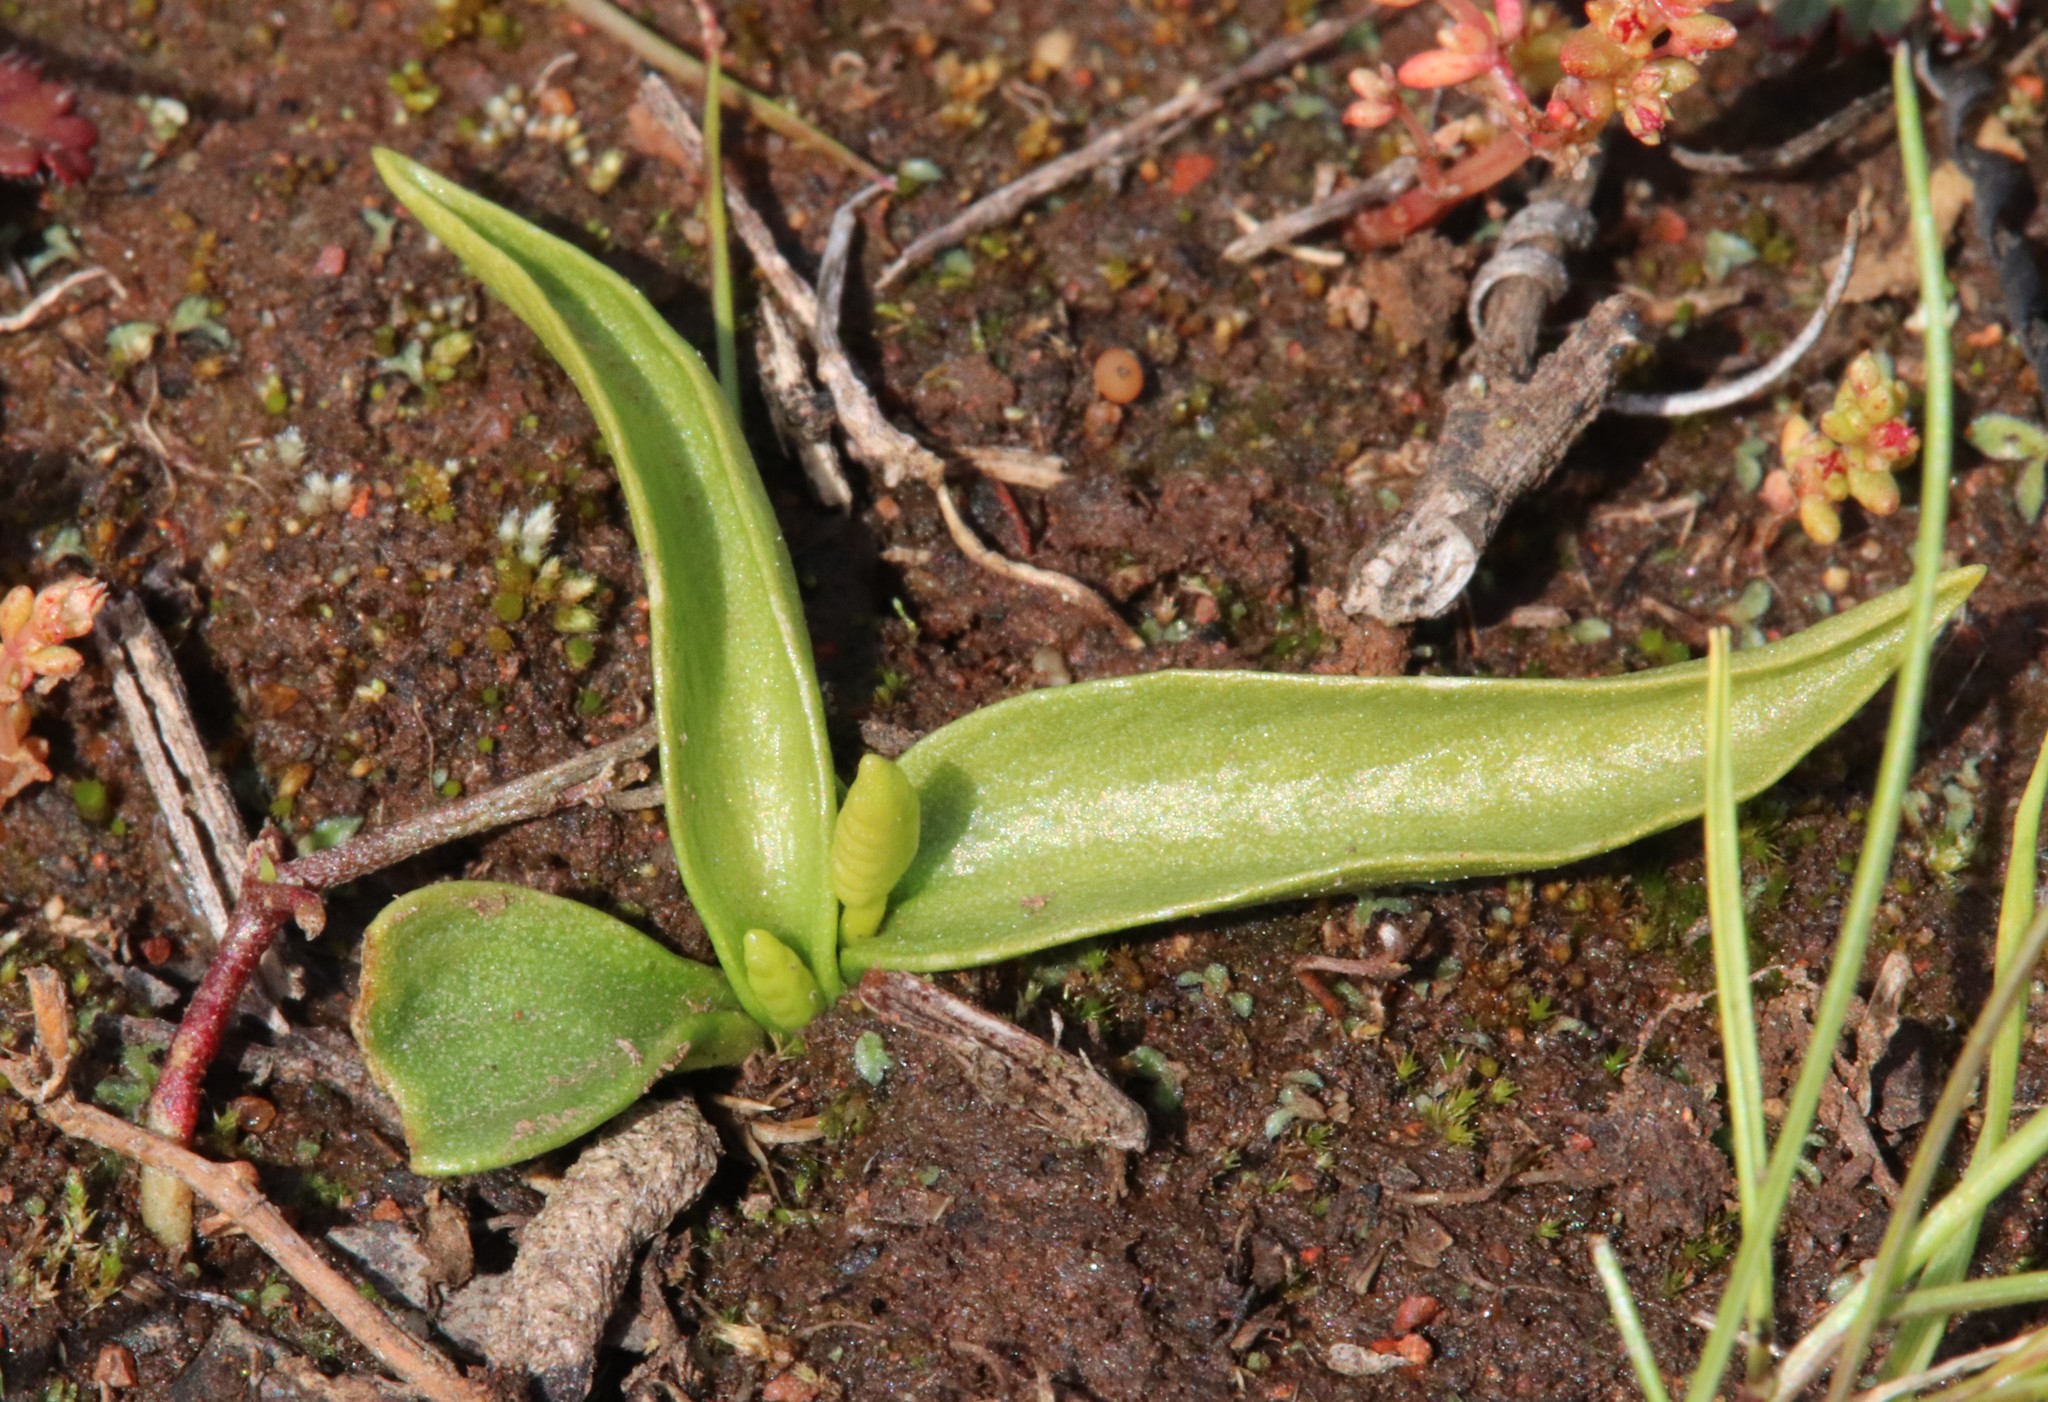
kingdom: Plantae
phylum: Tracheophyta
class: Polypodiopsida
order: Ophioglossales
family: Ophioglossaceae
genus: Ophioglossum
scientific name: Ophioglossum californicum
